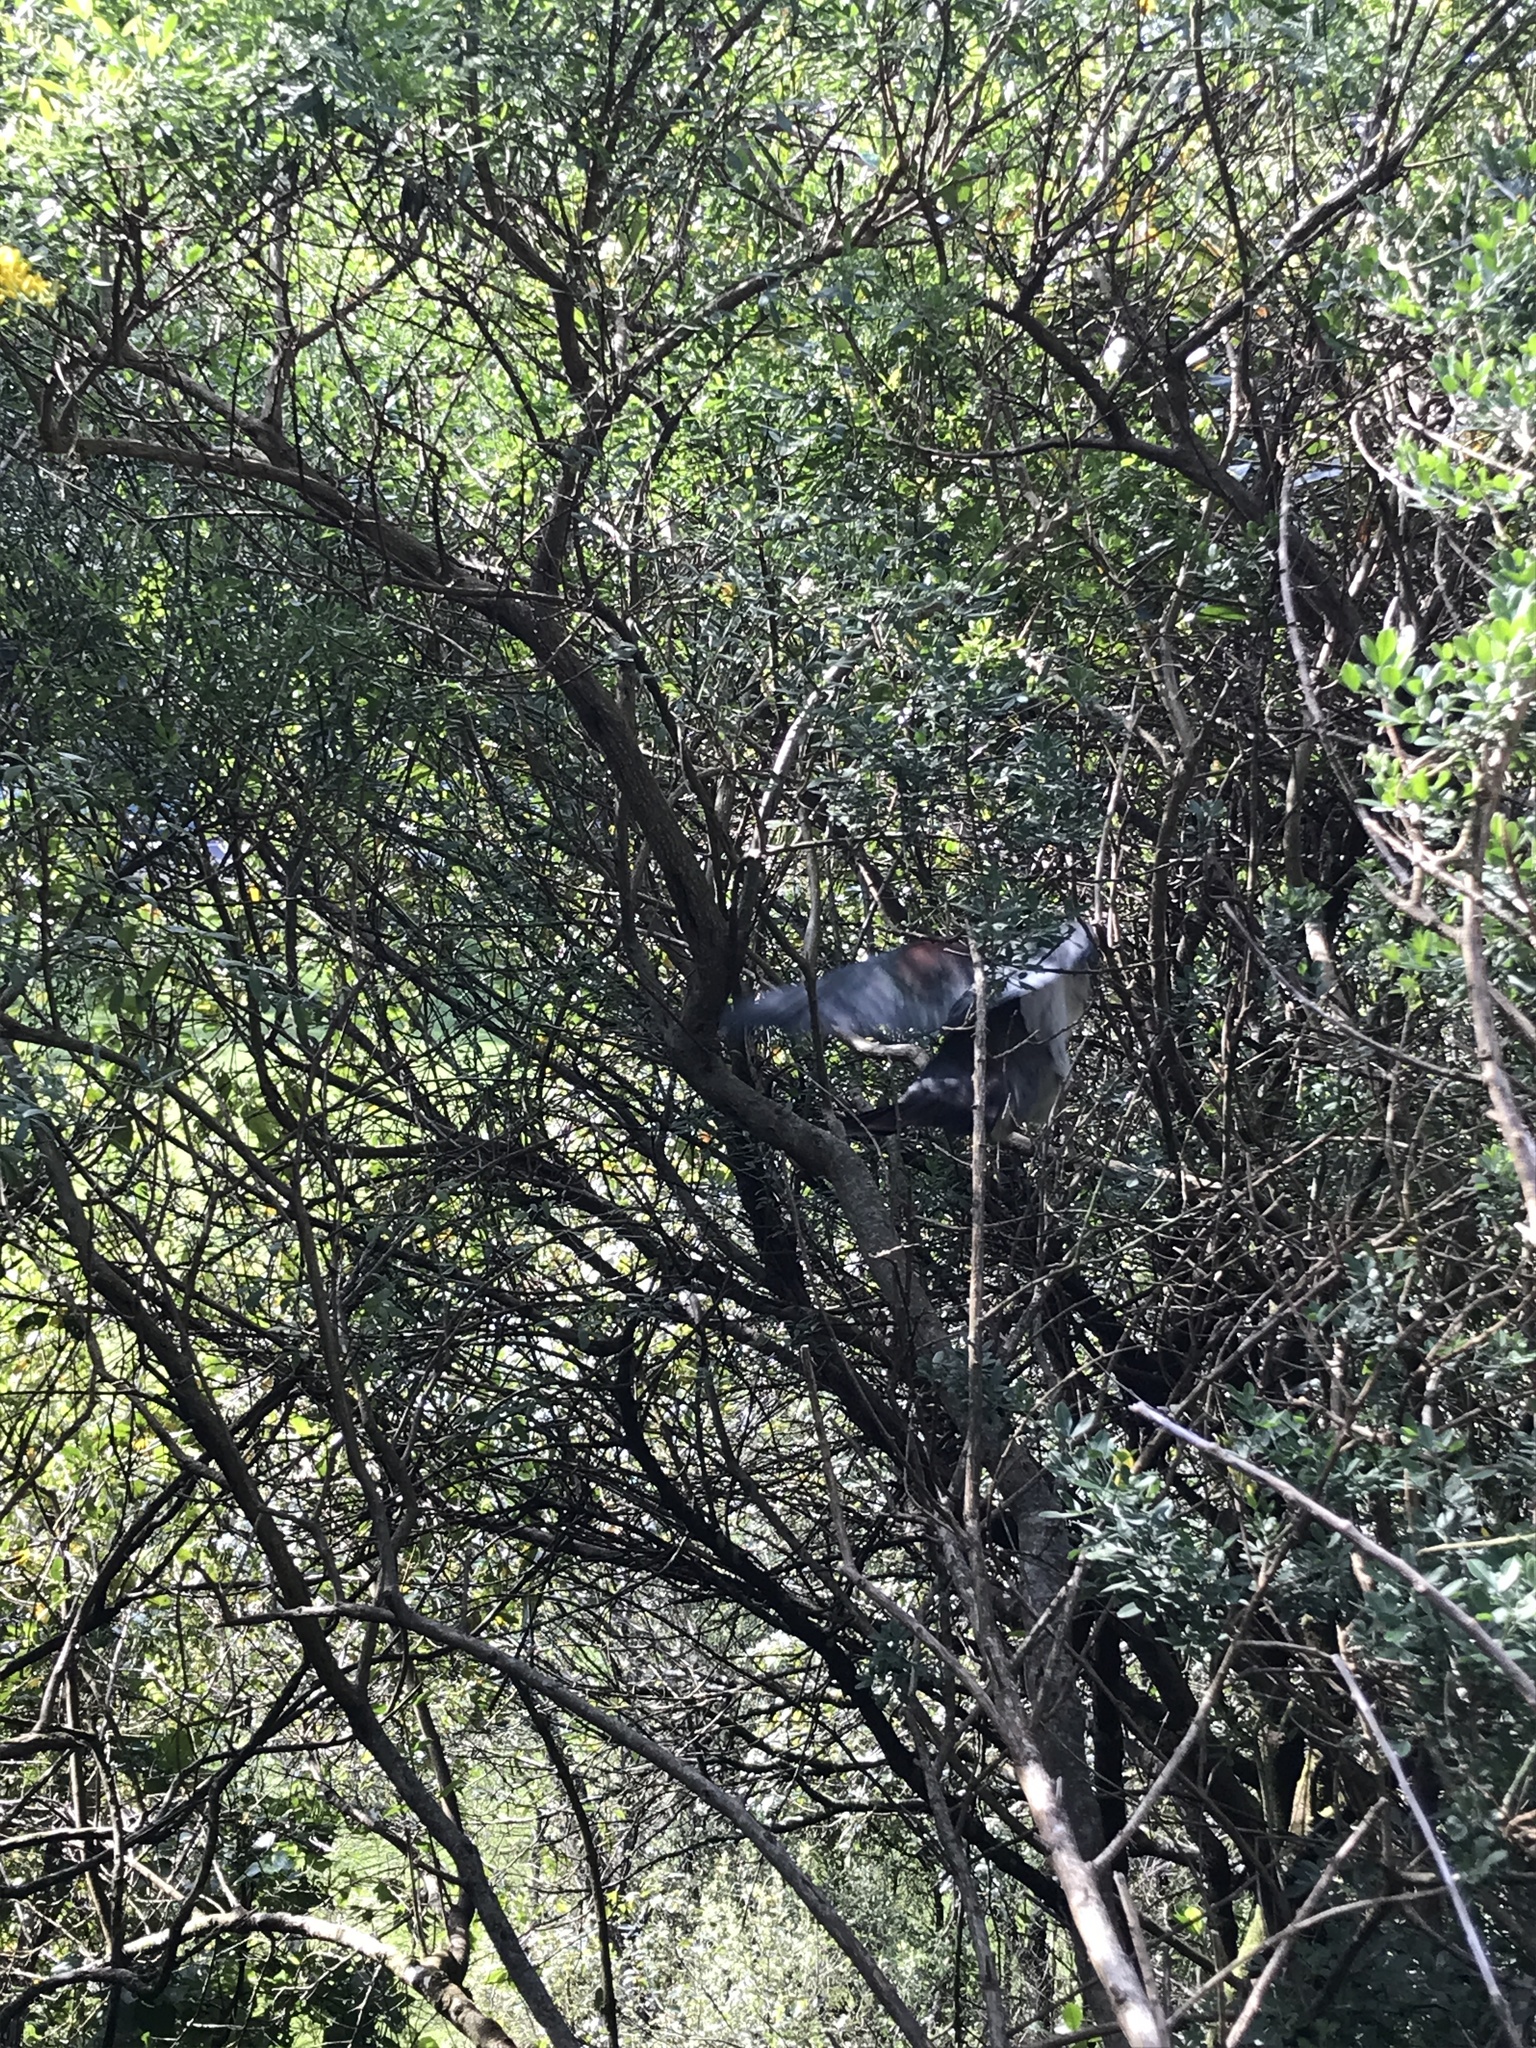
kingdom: Animalia
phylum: Chordata
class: Aves
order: Columbiformes
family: Columbidae
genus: Hemiphaga
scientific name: Hemiphaga novaeseelandiae
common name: New zealand pigeon
